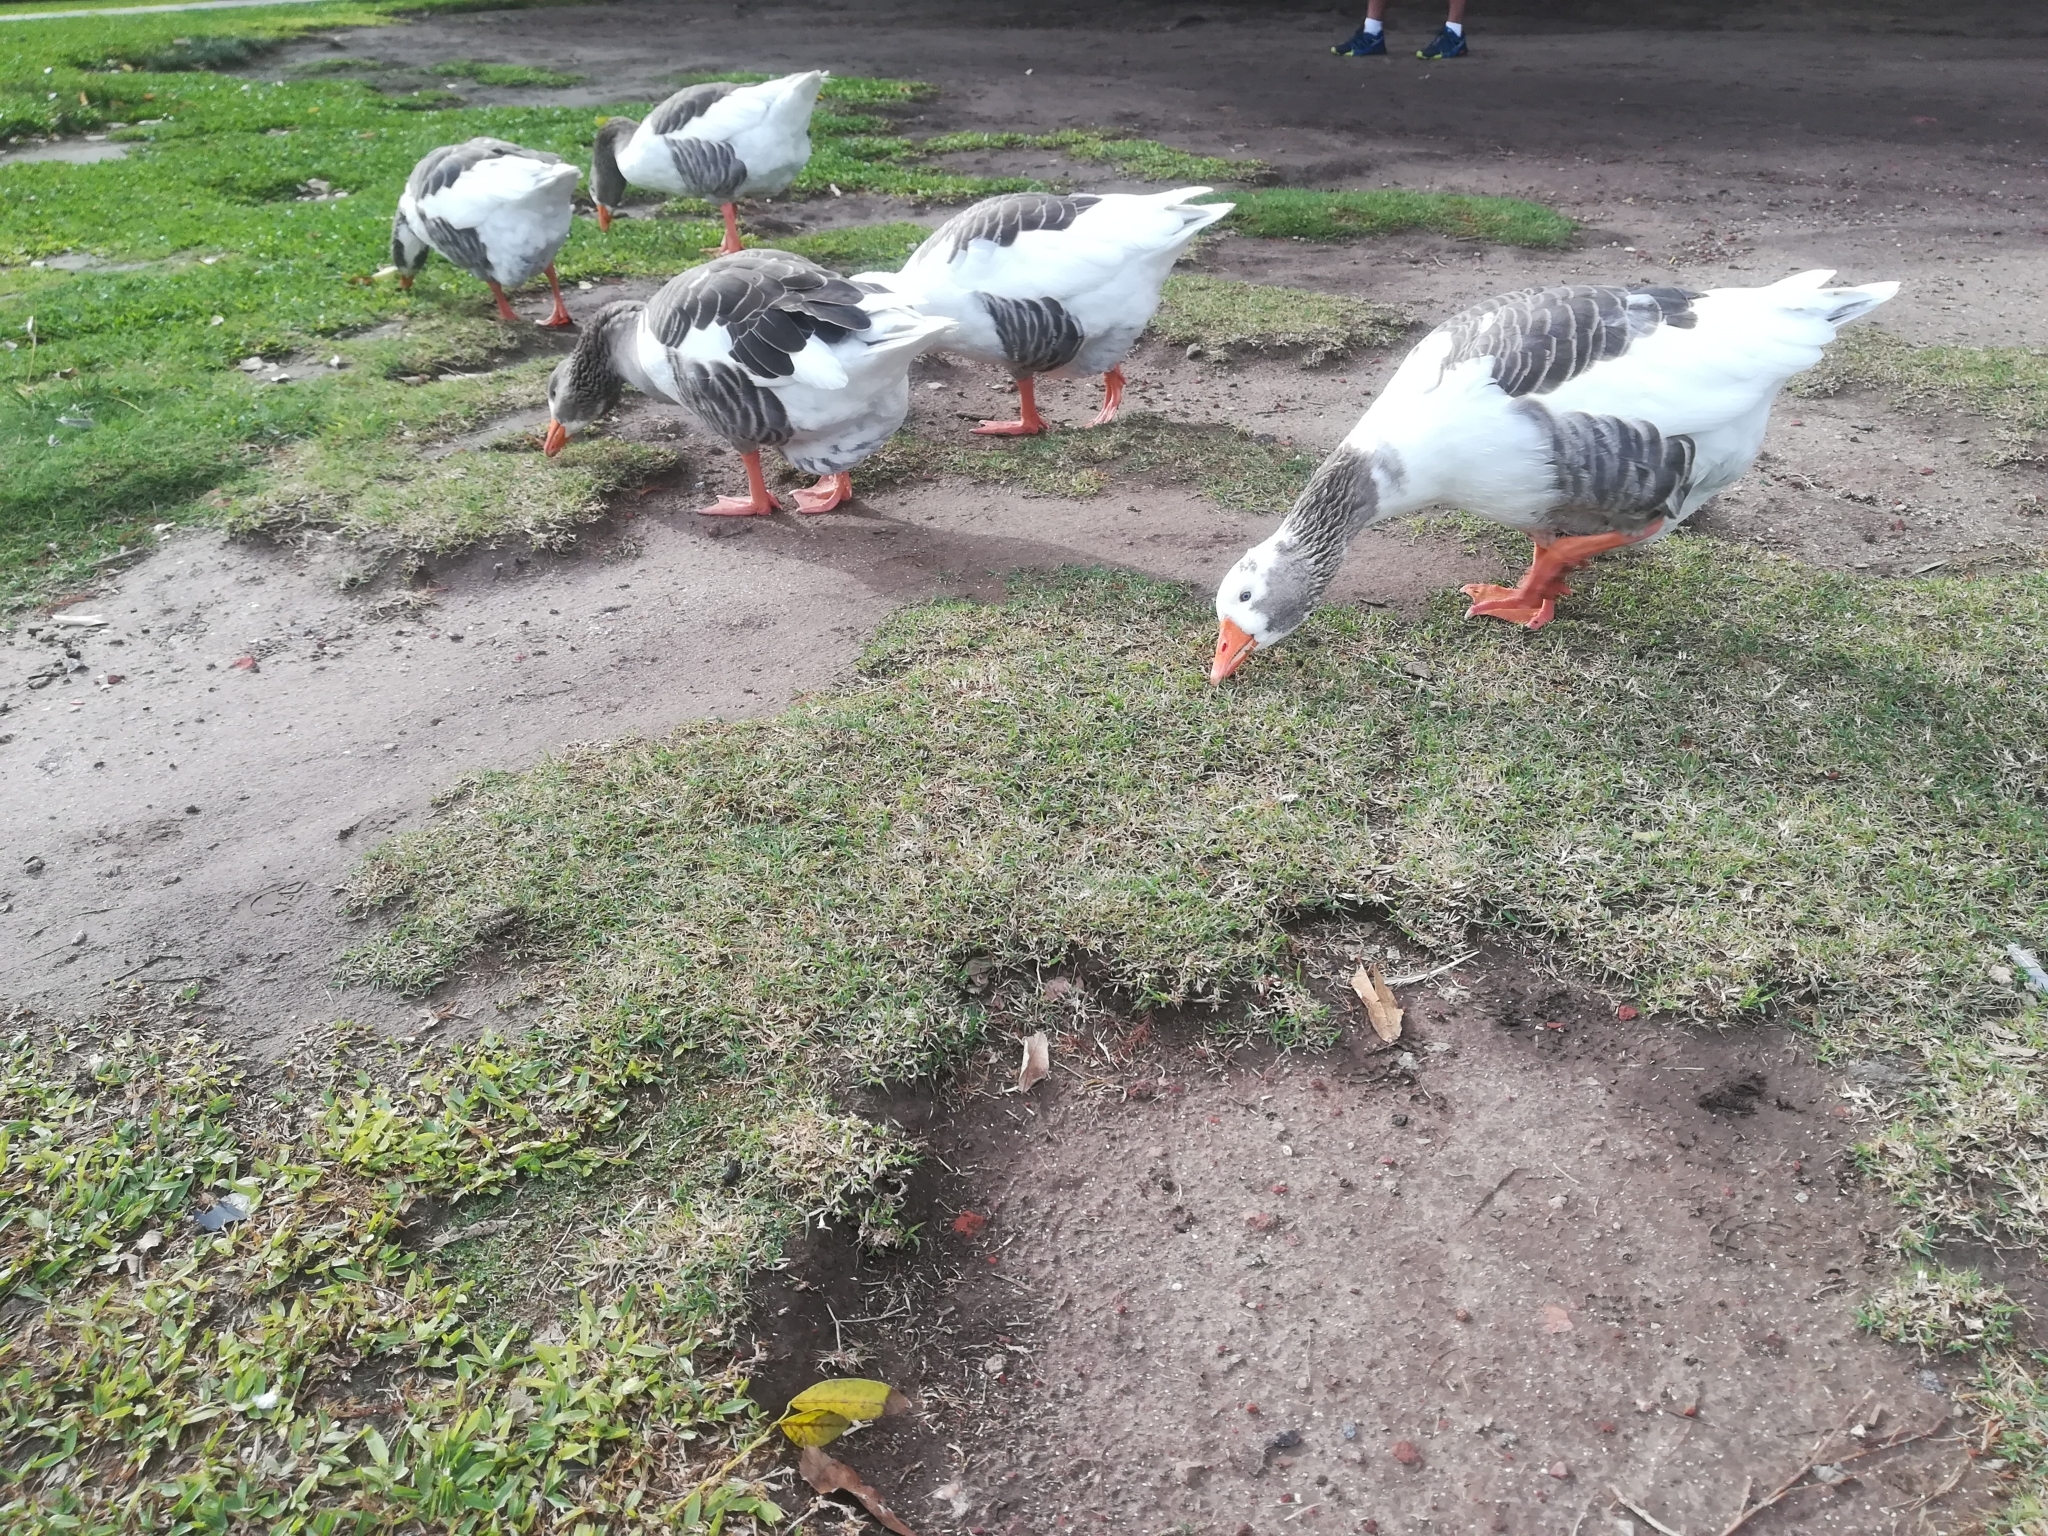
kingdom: Animalia
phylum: Chordata
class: Aves
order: Anseriformes
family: Anatidae
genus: Anser
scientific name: Anser anser
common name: Greylag goose
